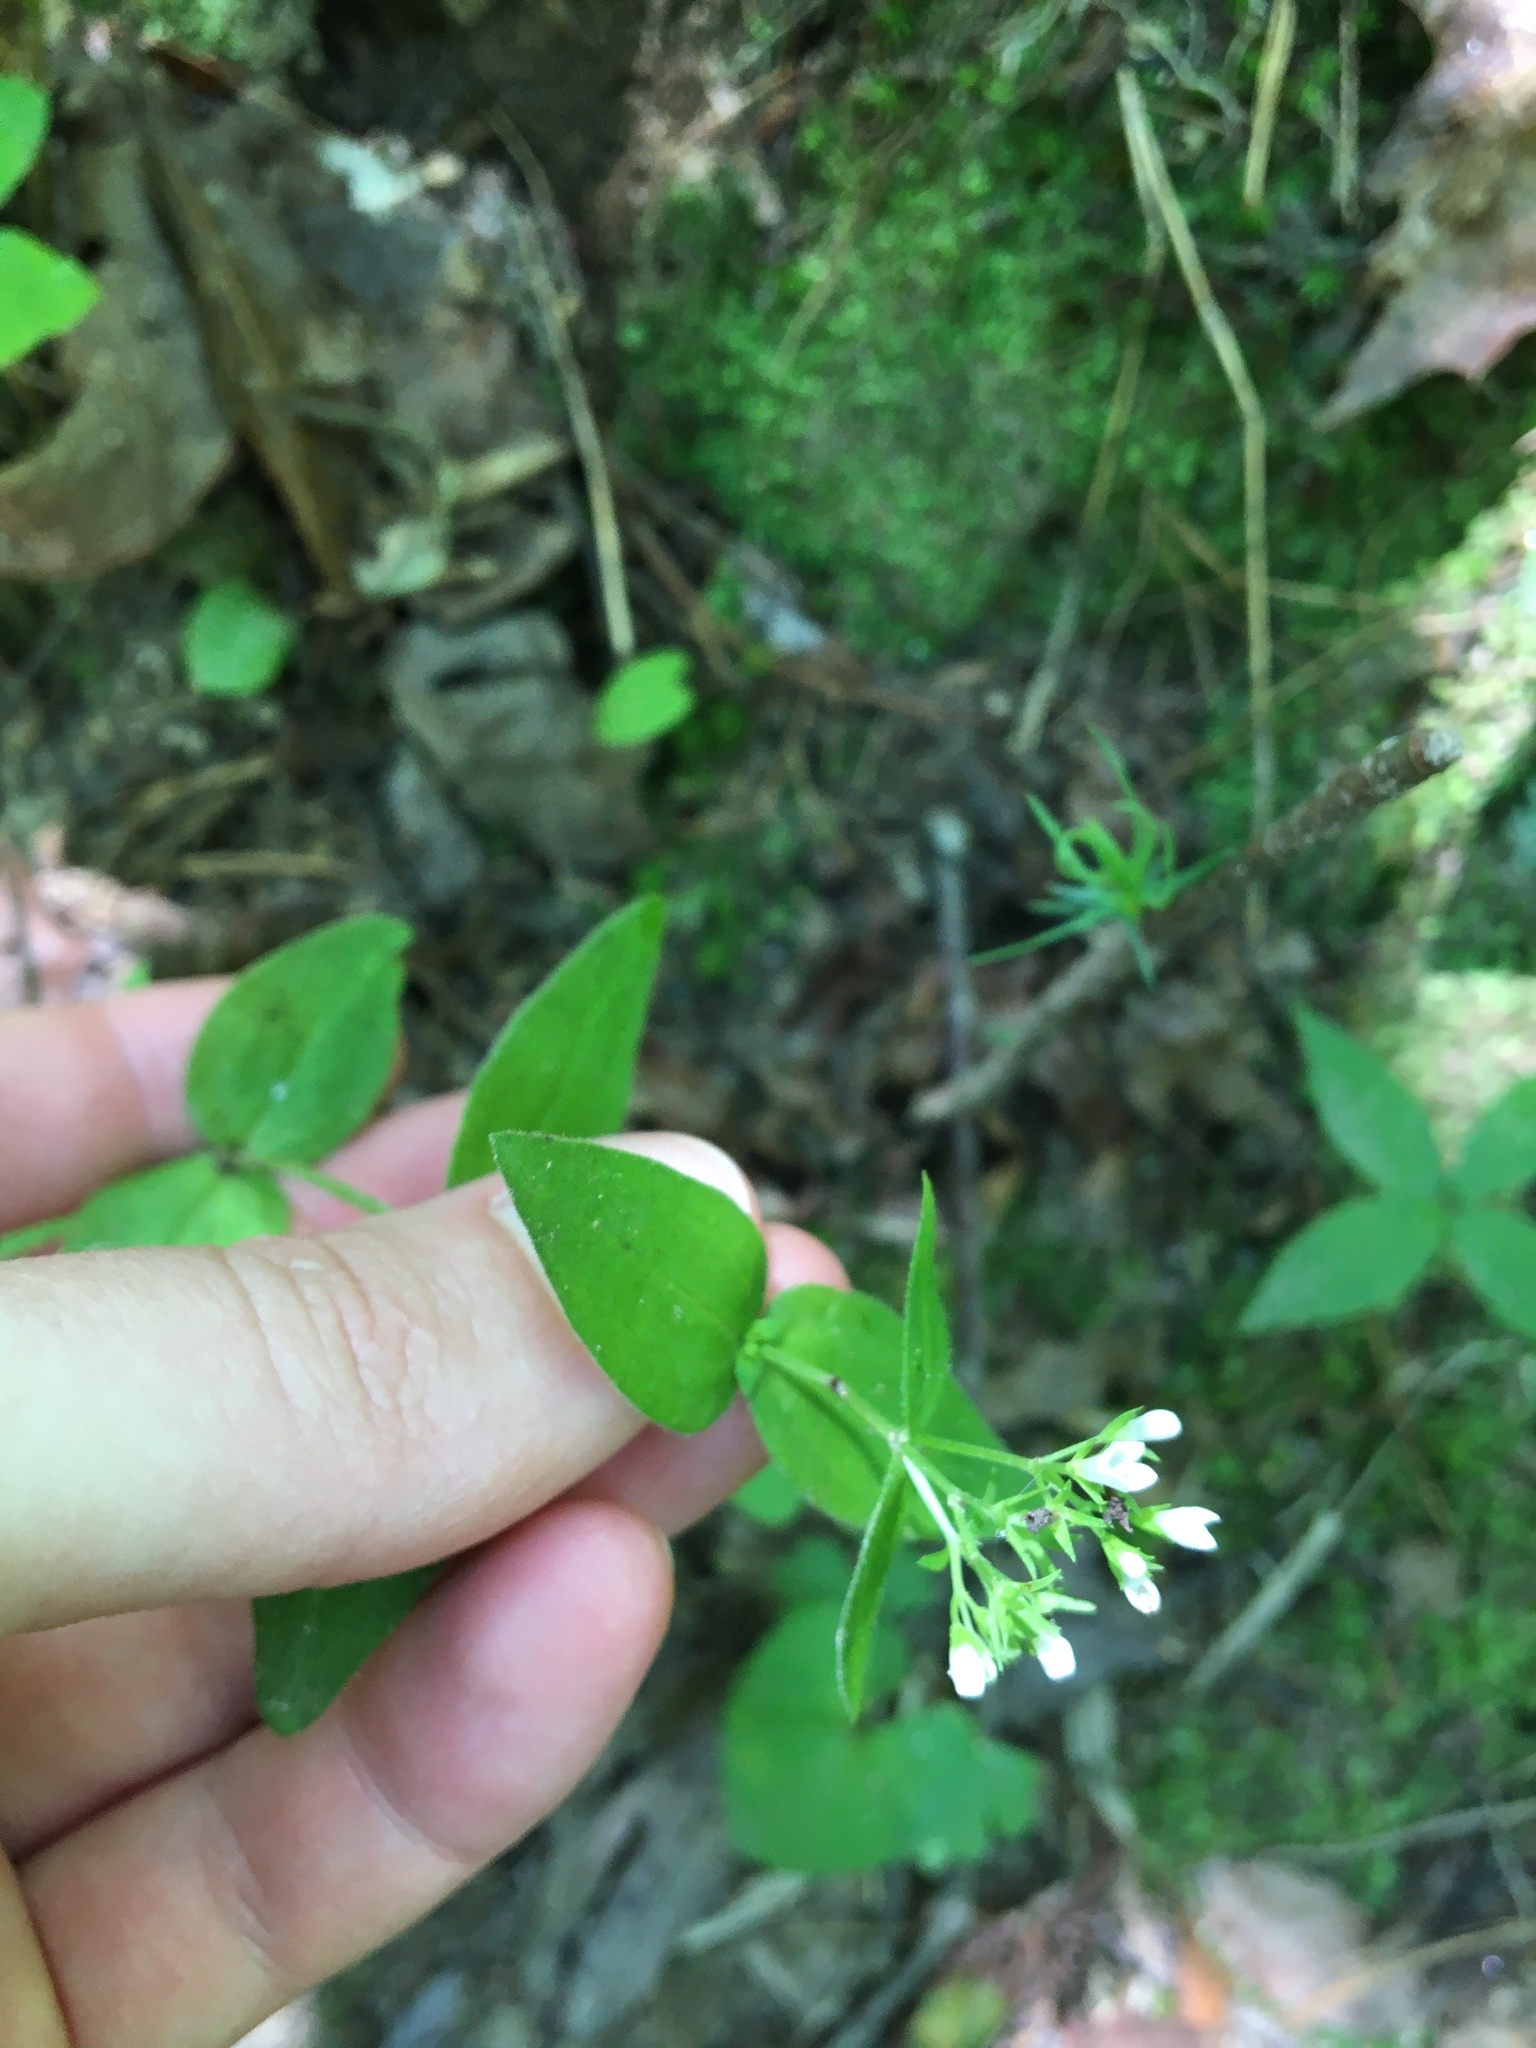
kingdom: Plantae
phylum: Tracheophyta
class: Magnoliopsida
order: Gentianales
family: Rubiaceae
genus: Houstonia
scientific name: Houstonia purpurea
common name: Summer bluet
